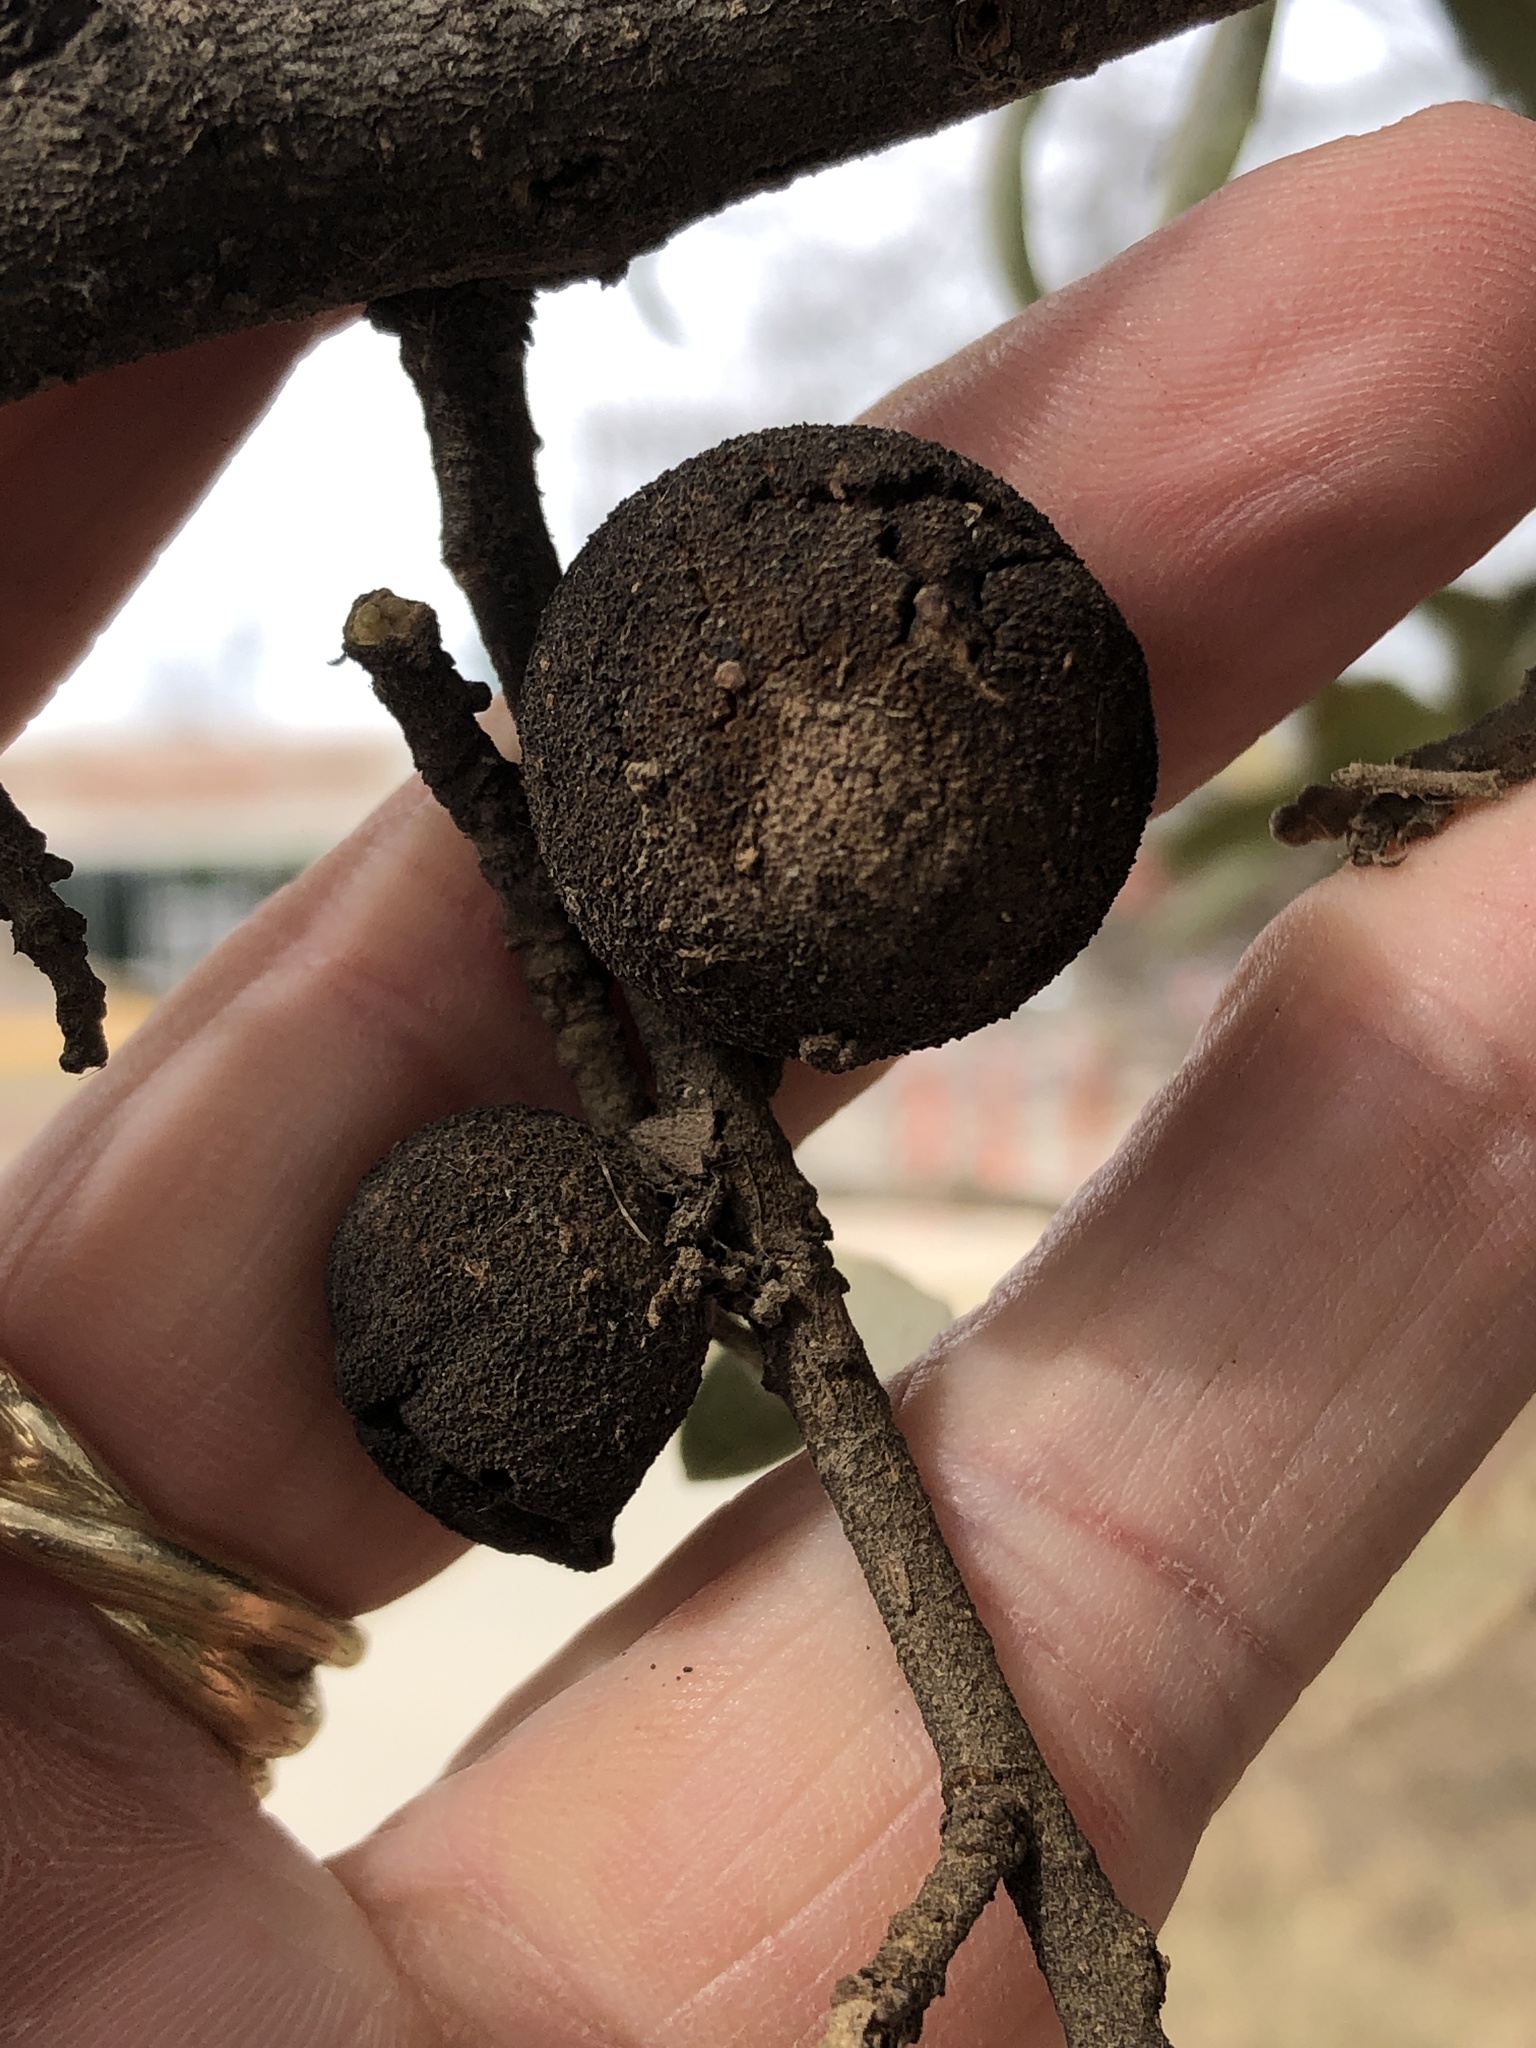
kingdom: Animalia
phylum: Arthropoda
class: Insecta
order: Hymenoptera
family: Cynipidae
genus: Disholcaspis
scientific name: Disholcaspis
